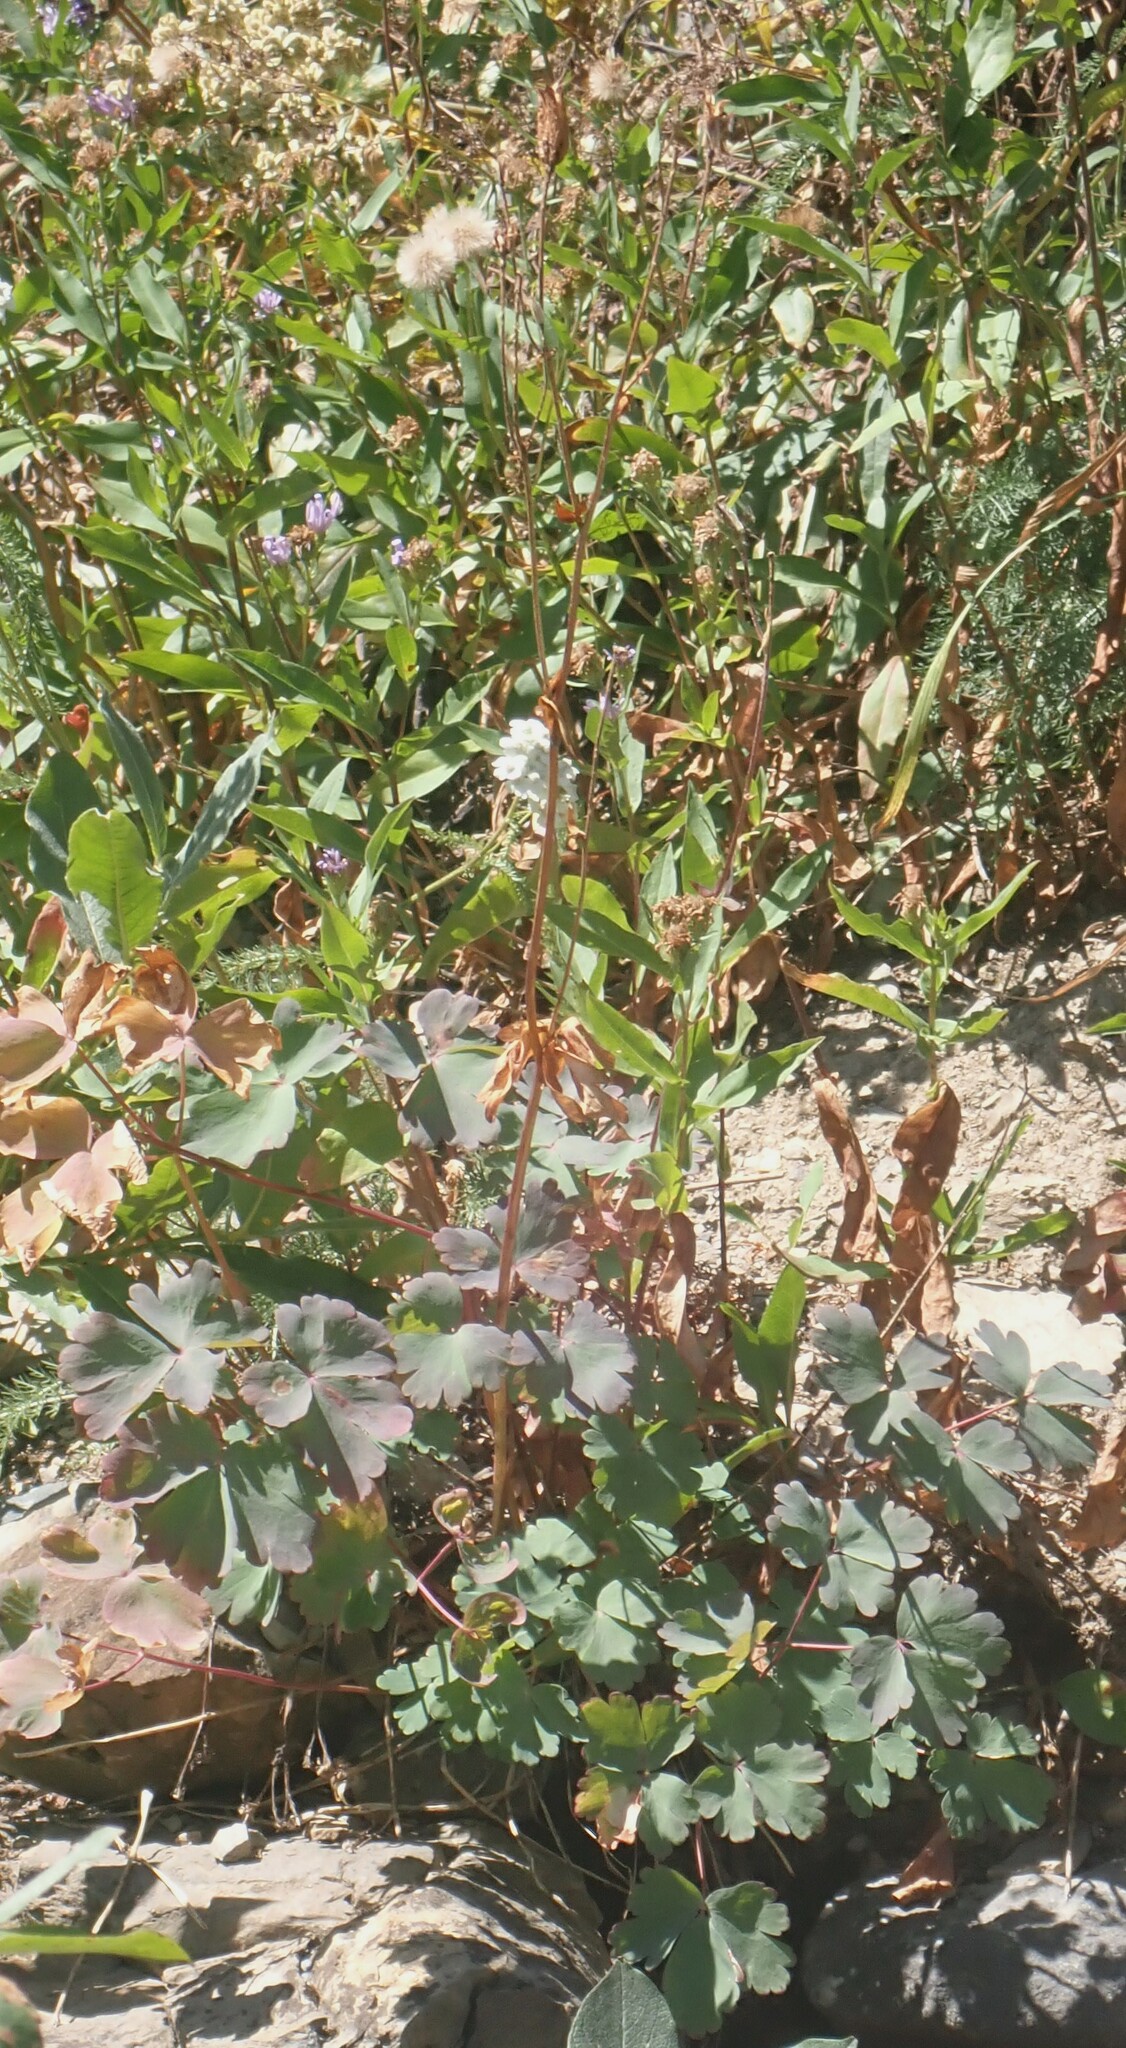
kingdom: Plantae
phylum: Tracheophyta
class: Magnoliopsida
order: Ranunculales
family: Ranunculaceae
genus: Aquilegia
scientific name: Aquilegia flavescens
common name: Yellow columbine
